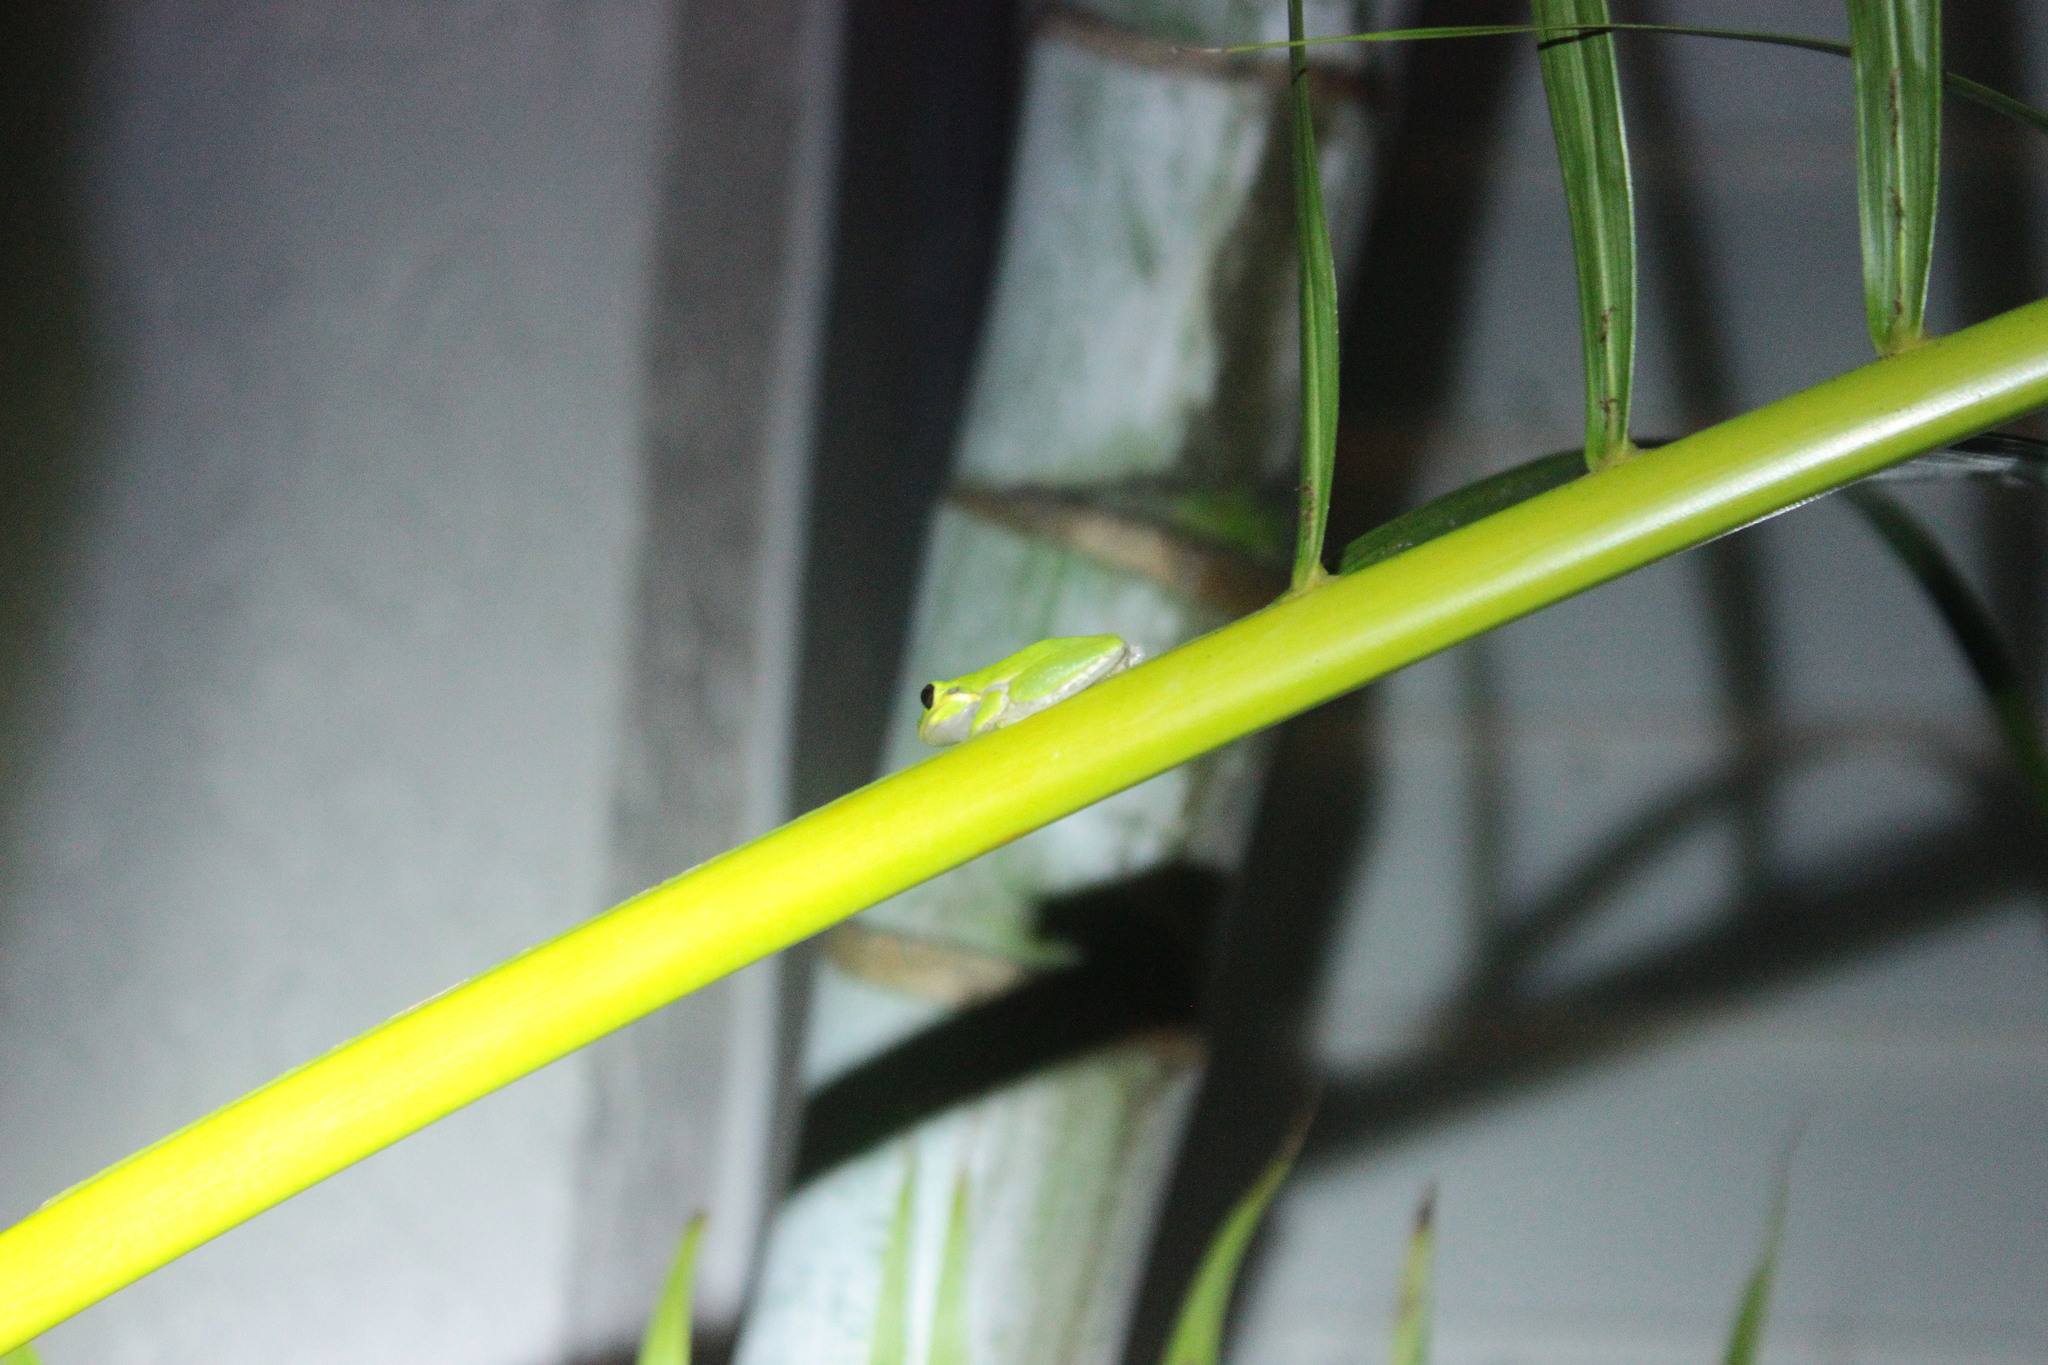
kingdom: Animalia
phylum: Chordata
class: Amphibia
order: Anura
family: Hylidae
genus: Dryophytes
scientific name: Dryophytes squirellus
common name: Squirrel treefrog
